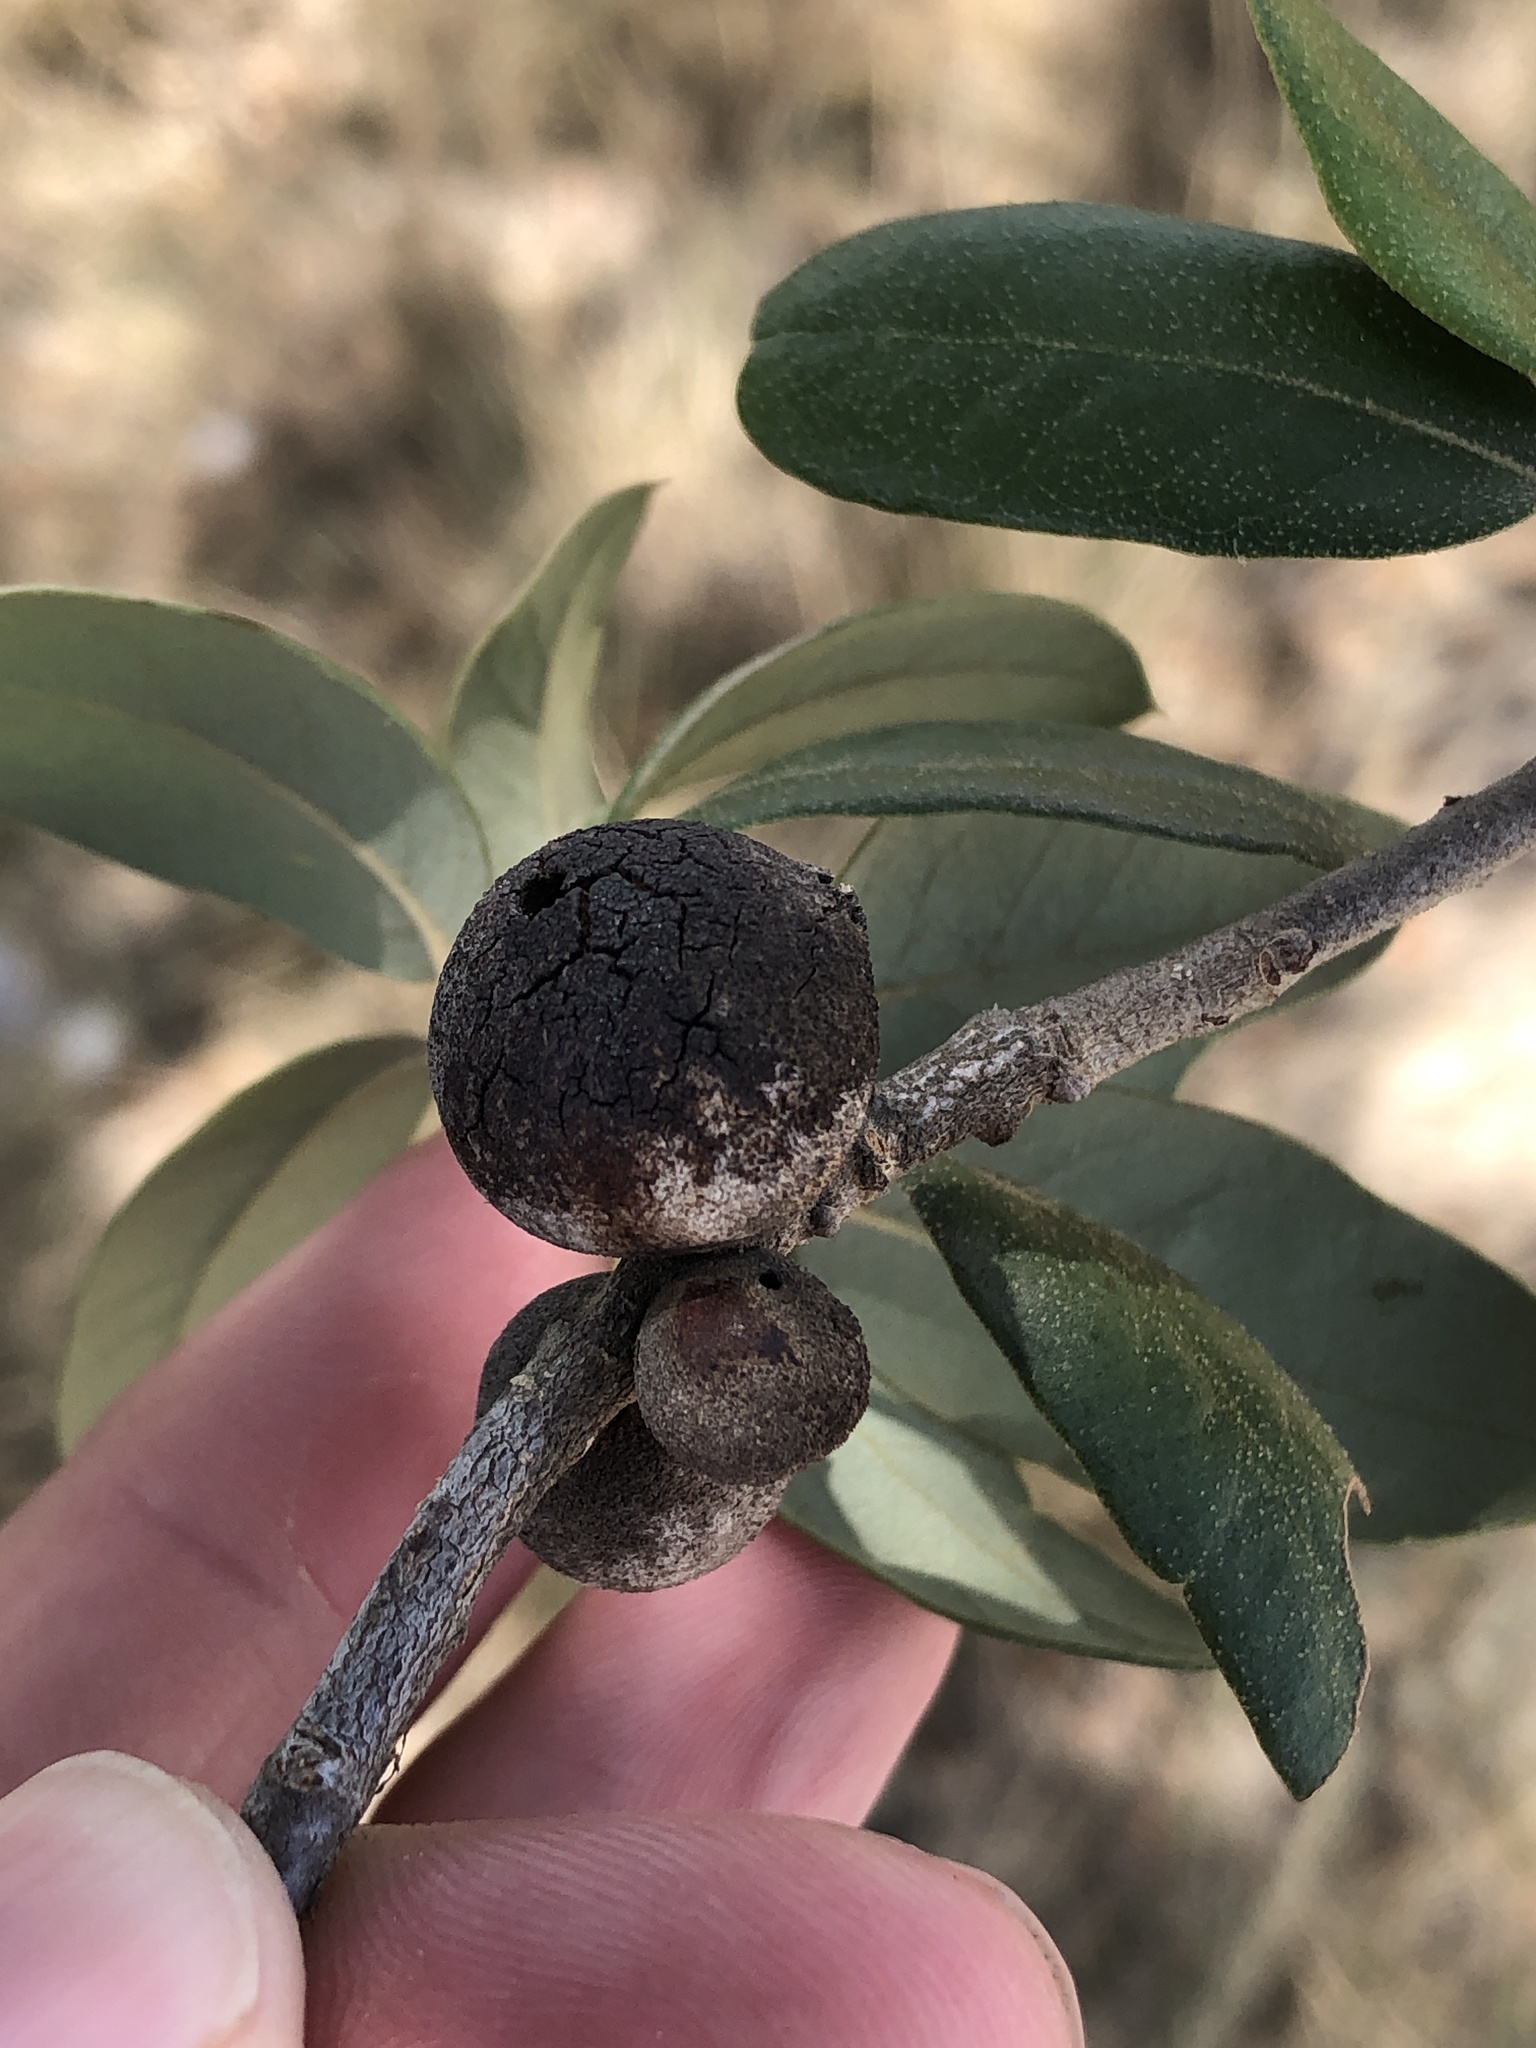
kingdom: Animalia
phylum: Arthropoda
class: Insecta
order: Hymenoptera
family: Cynipidae
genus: Disholcaspis
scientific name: Disholcaspis
